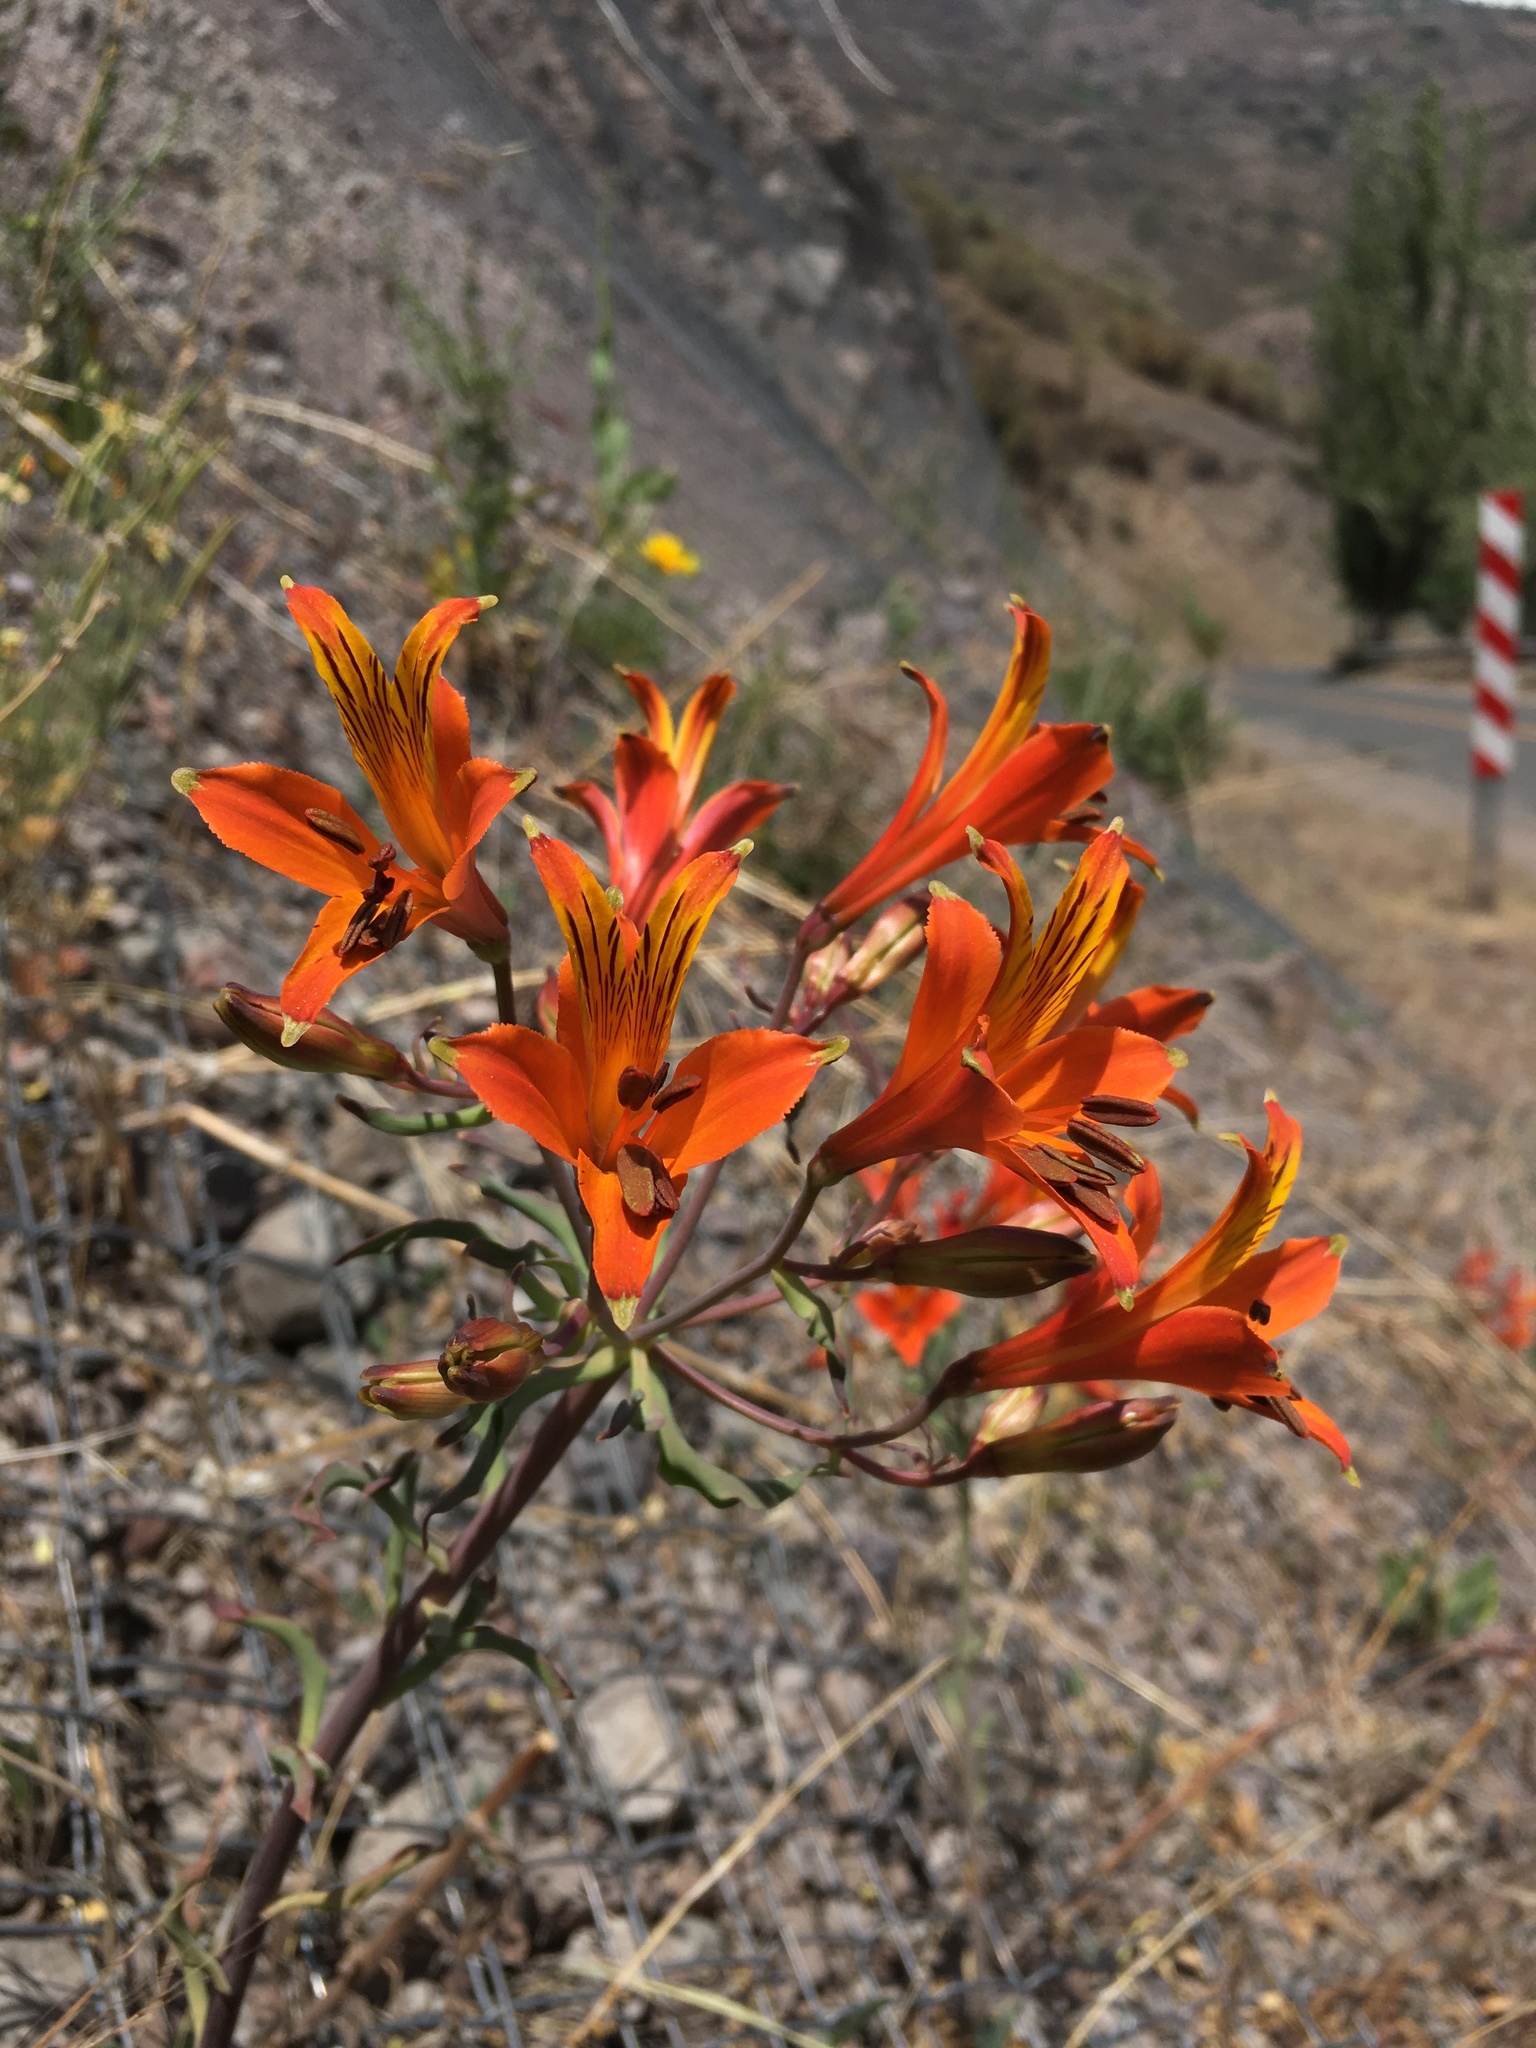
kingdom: Plantae
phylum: Tracheophyta
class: Liliopsida
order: Liliales
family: Alstroemeriaceae
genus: Alstroemeria
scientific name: Alstroemeria ligtu
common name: St. martin's-flower
